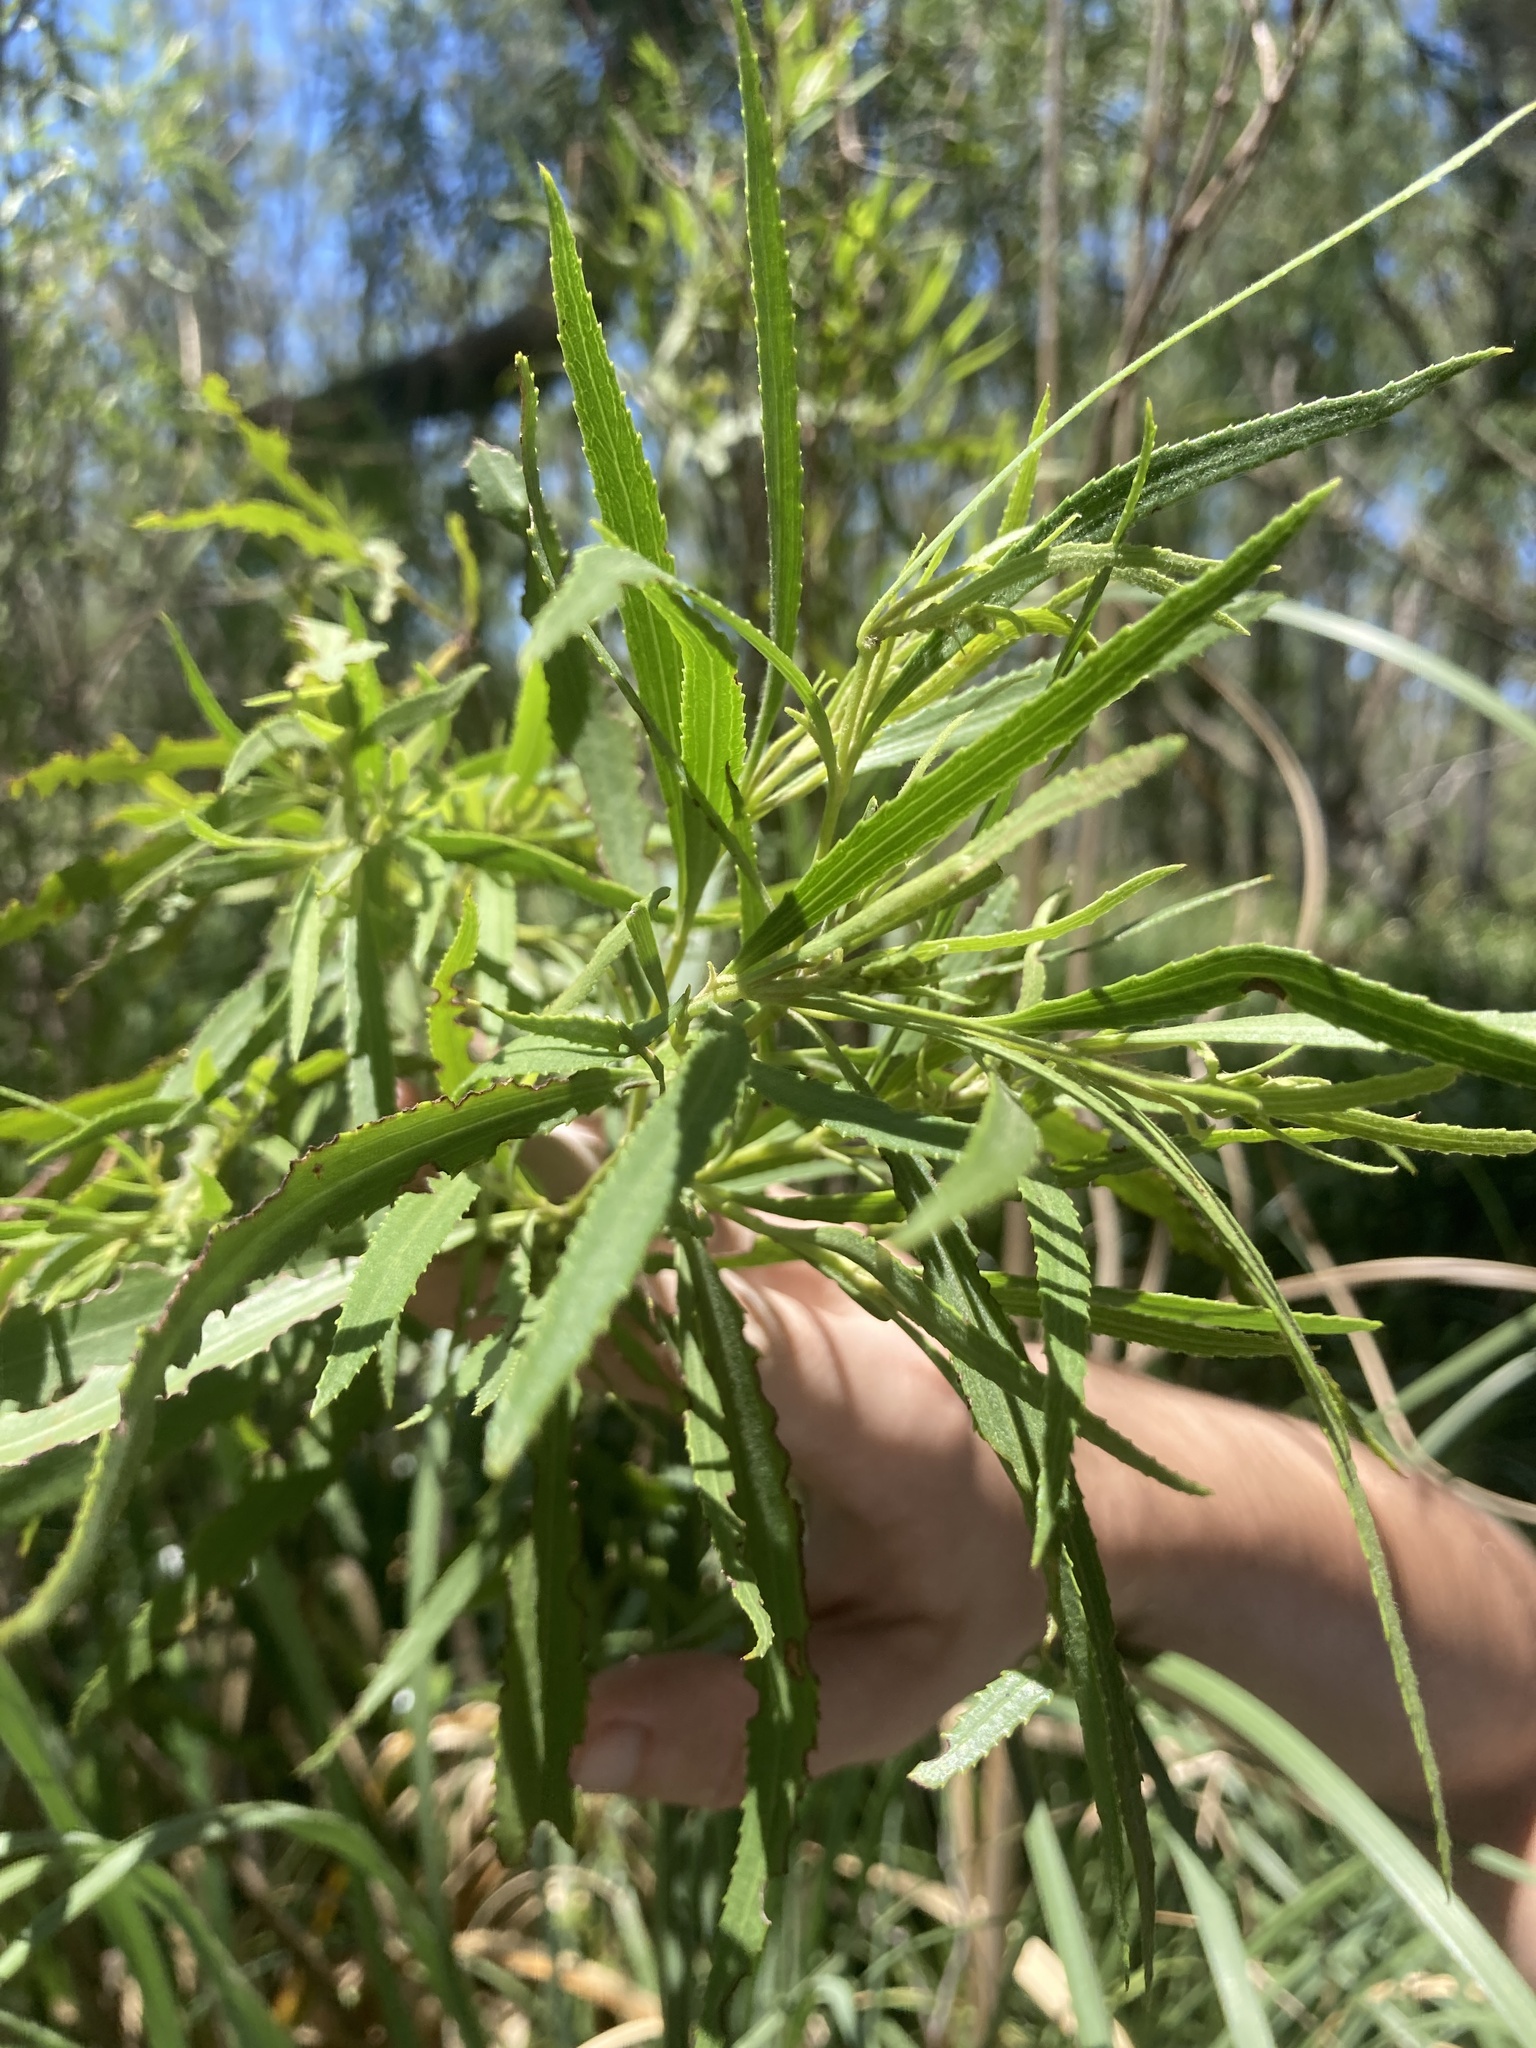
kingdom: Plantae
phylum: Tracheophyta
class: Magnoliopsida
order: Asterales
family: Asteraceae
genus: Raulinoreitzia
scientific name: Raulinoreitzia tremula
